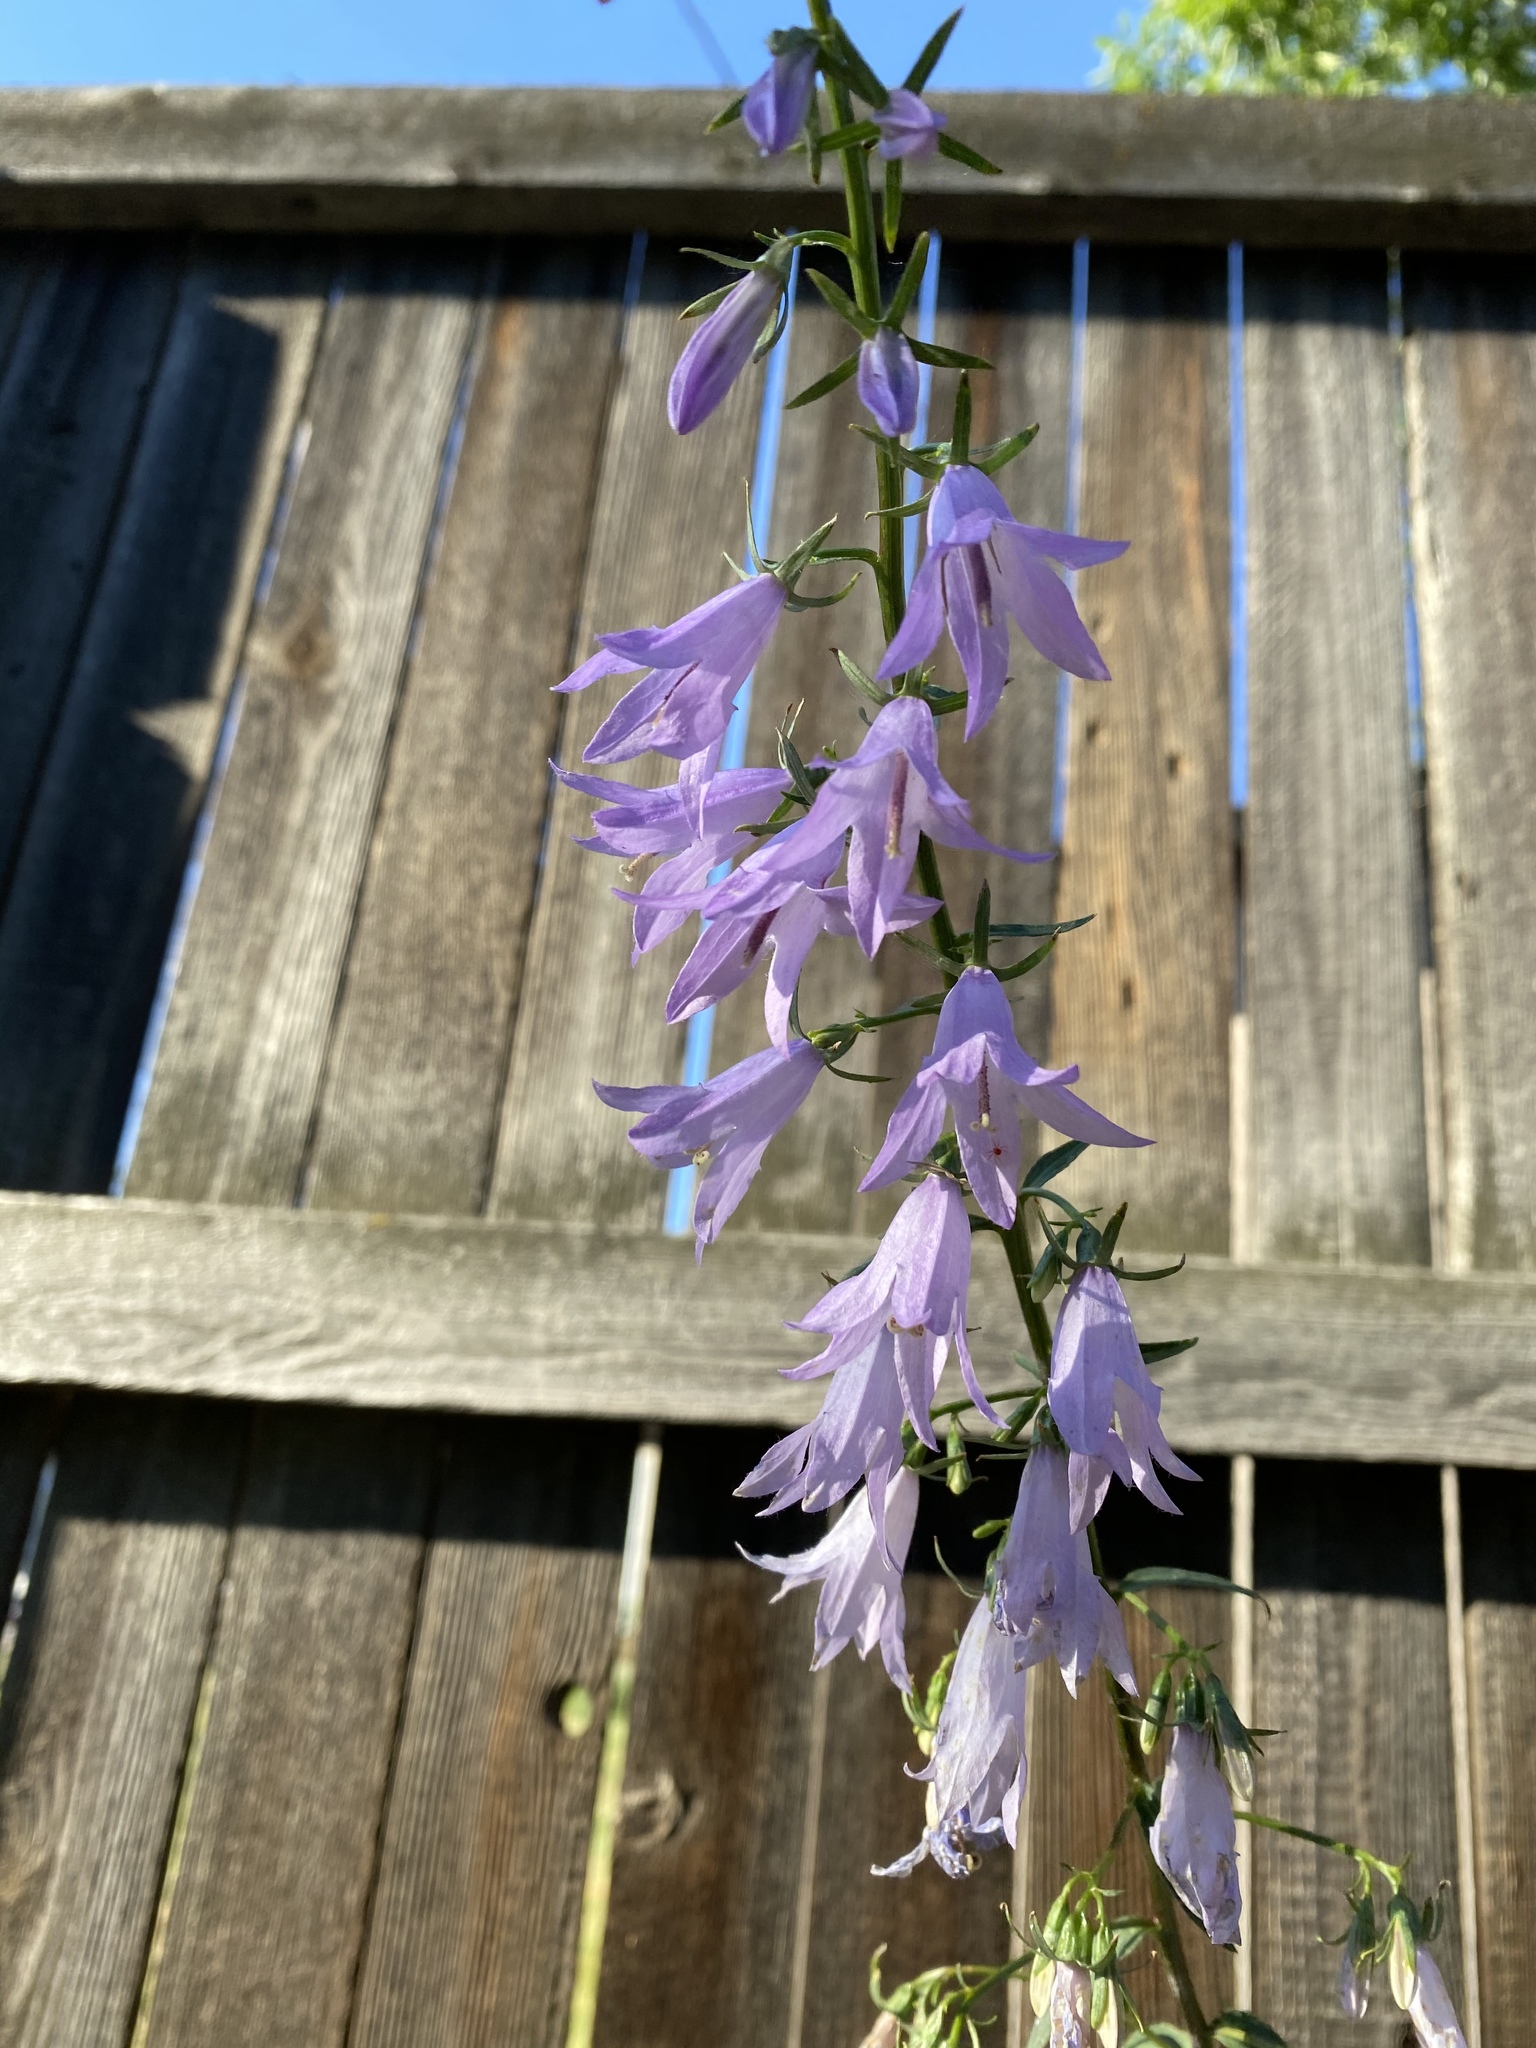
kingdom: Plantae
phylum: Tracheophyta
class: Magnoliopsida
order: Asterales
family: Campanulaceae
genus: Campanula
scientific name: Campanula rapunculoides
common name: Creeping bellflower
